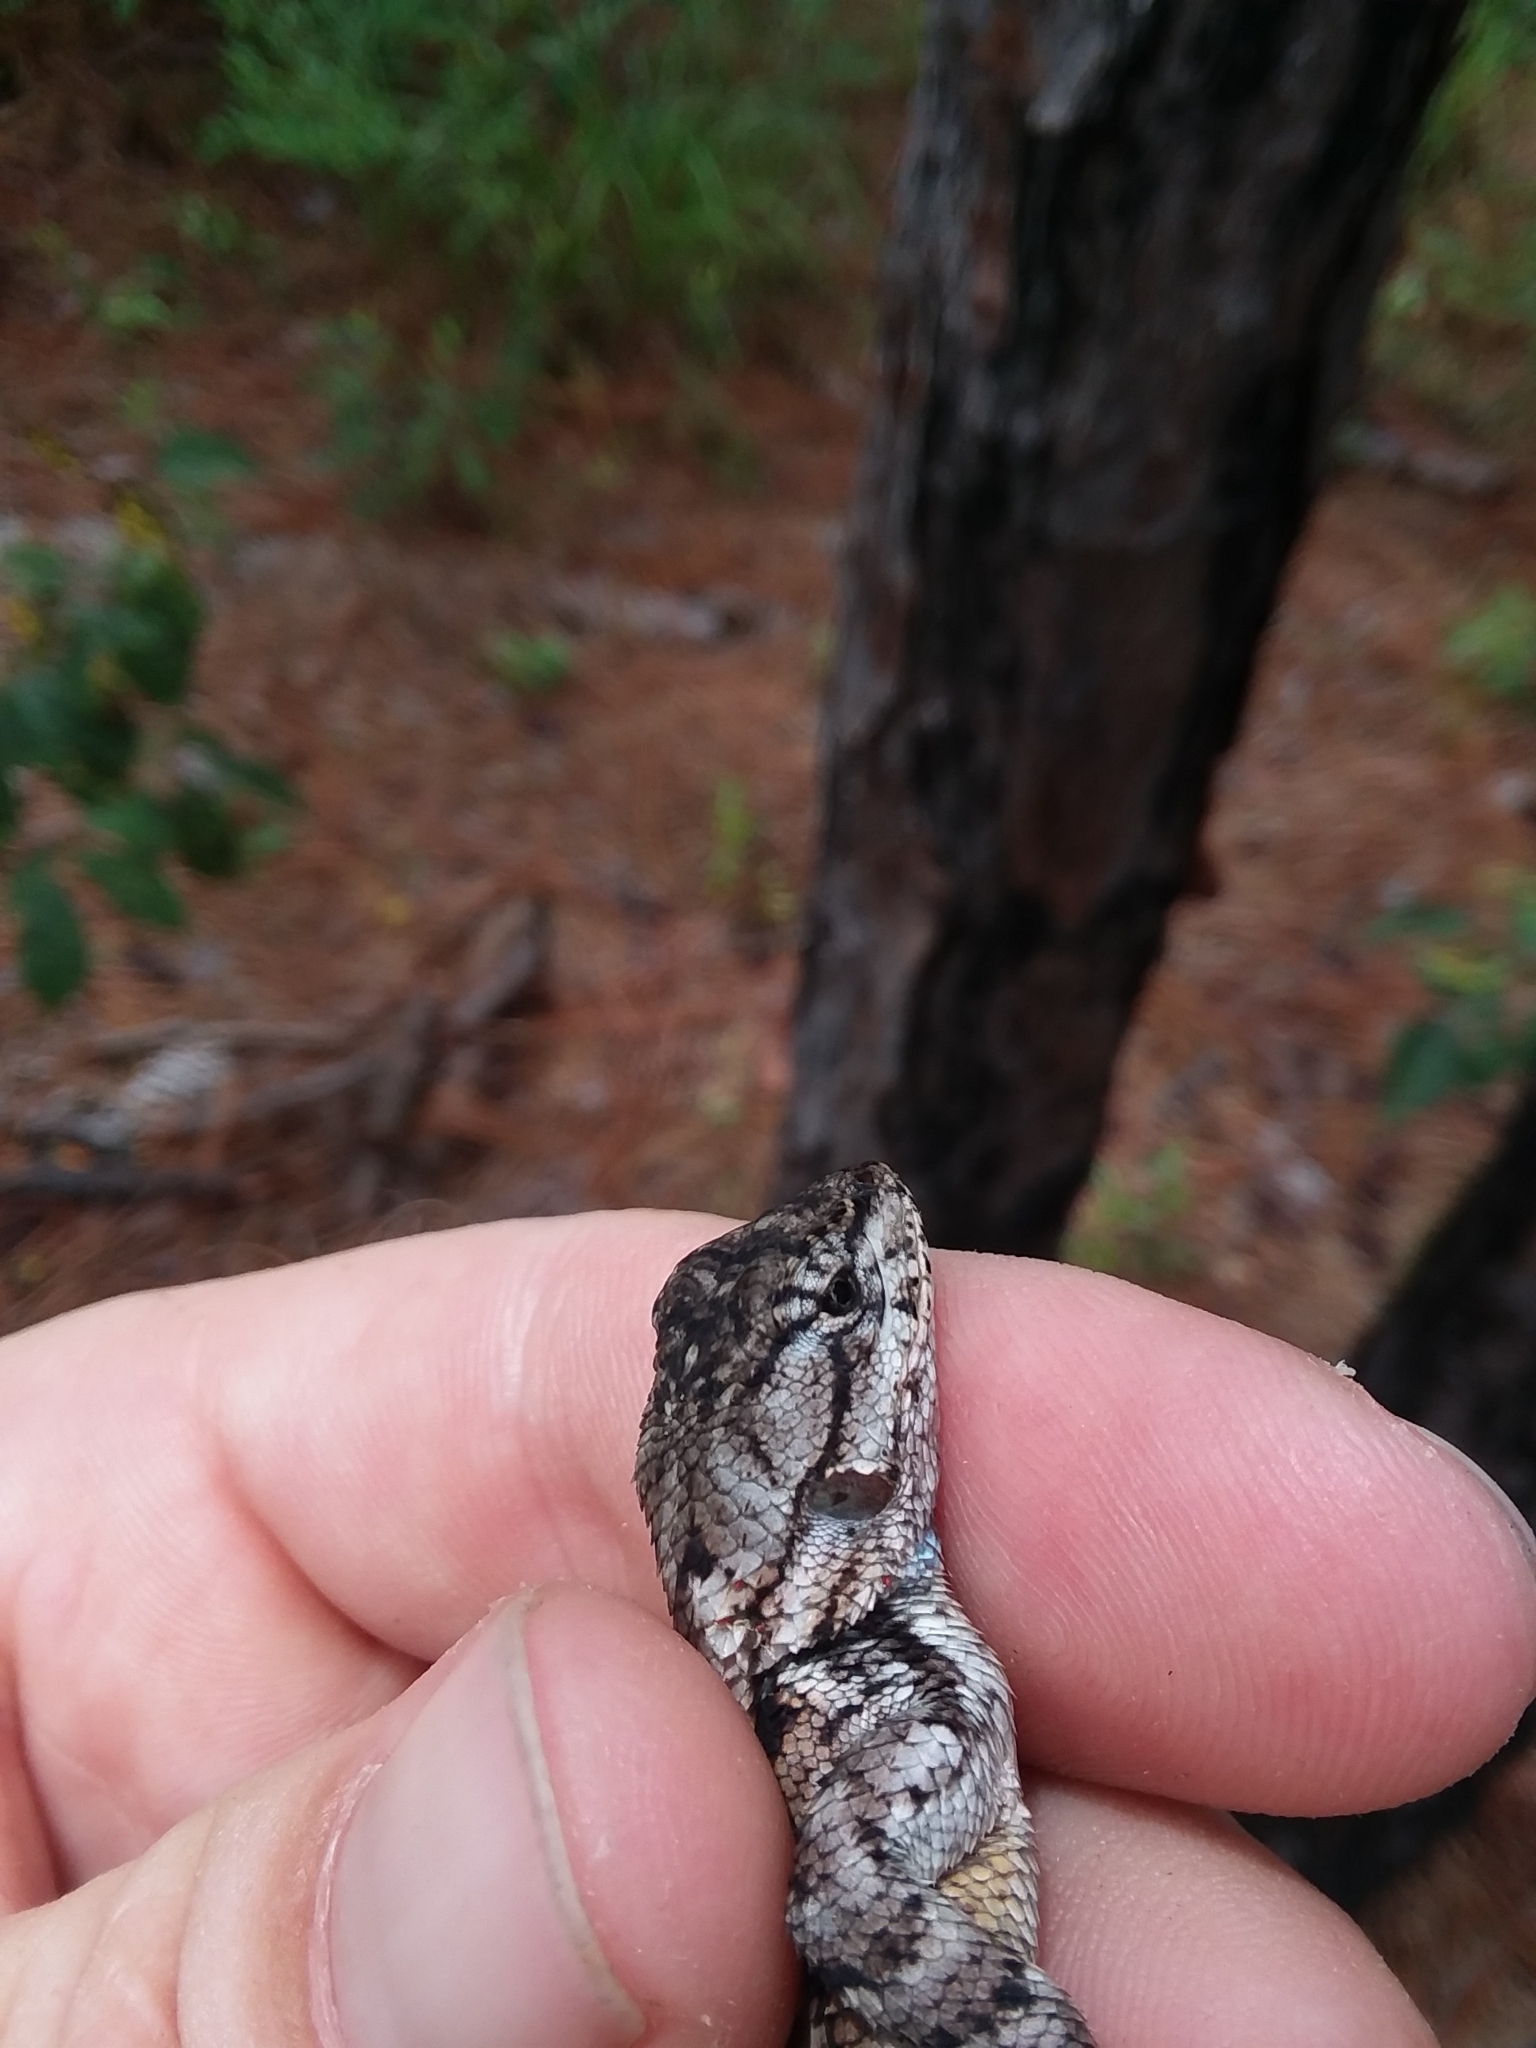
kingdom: Animalia
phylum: Chordata
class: Squamata
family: Phrynosomatidae
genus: Sceloporus
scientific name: Sceloporus undulatus
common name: Eastern fence lizard
